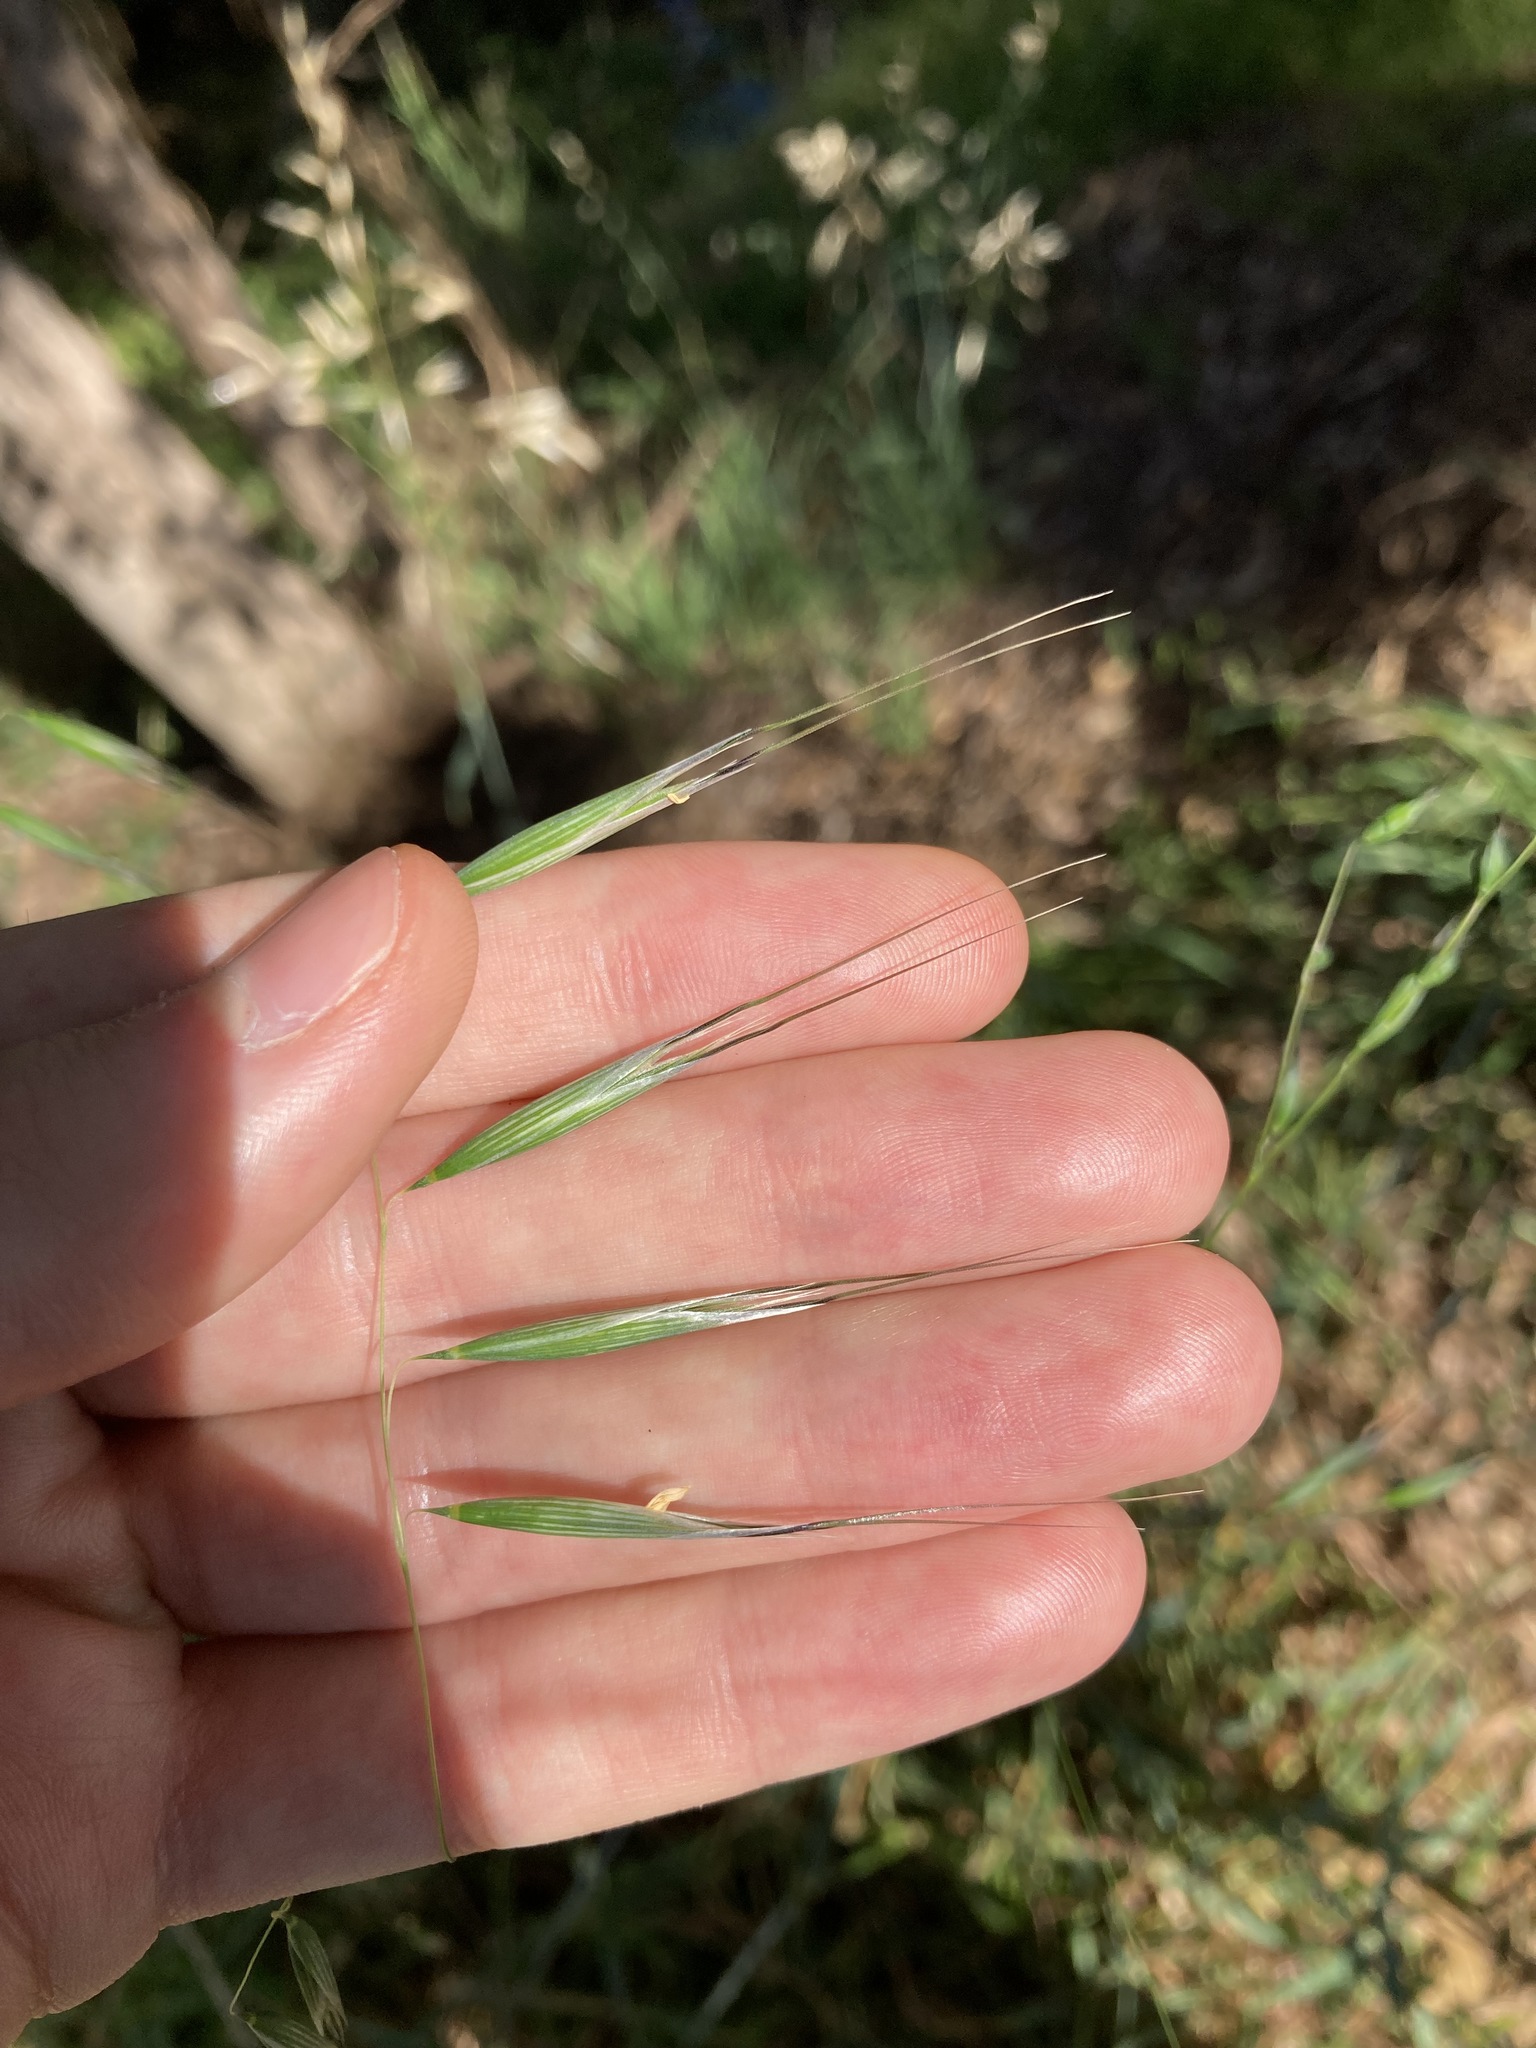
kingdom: Plantae
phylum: Tracheophyta
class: Liliopsida
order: Poales
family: Poaceae
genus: Avena
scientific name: Avena barbata
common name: Slender oat
